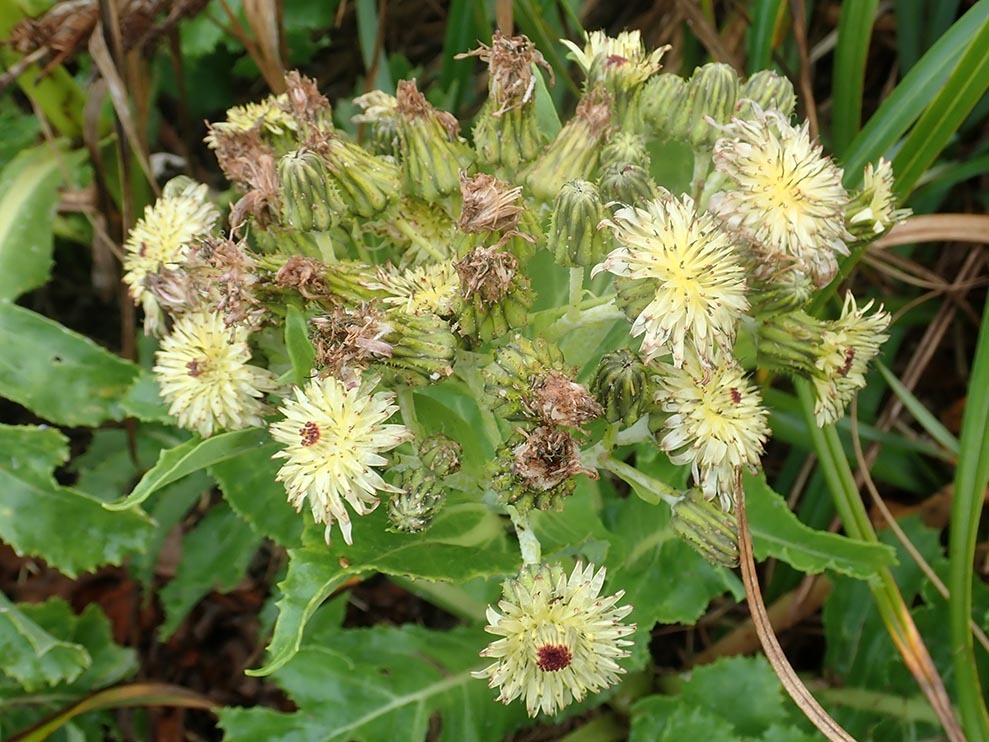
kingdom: Plantae
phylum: Tracheophyta
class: Magnoliopsida
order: Asterales
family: Asteraceae
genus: Sonchus
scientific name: Sonchus grandifolius
